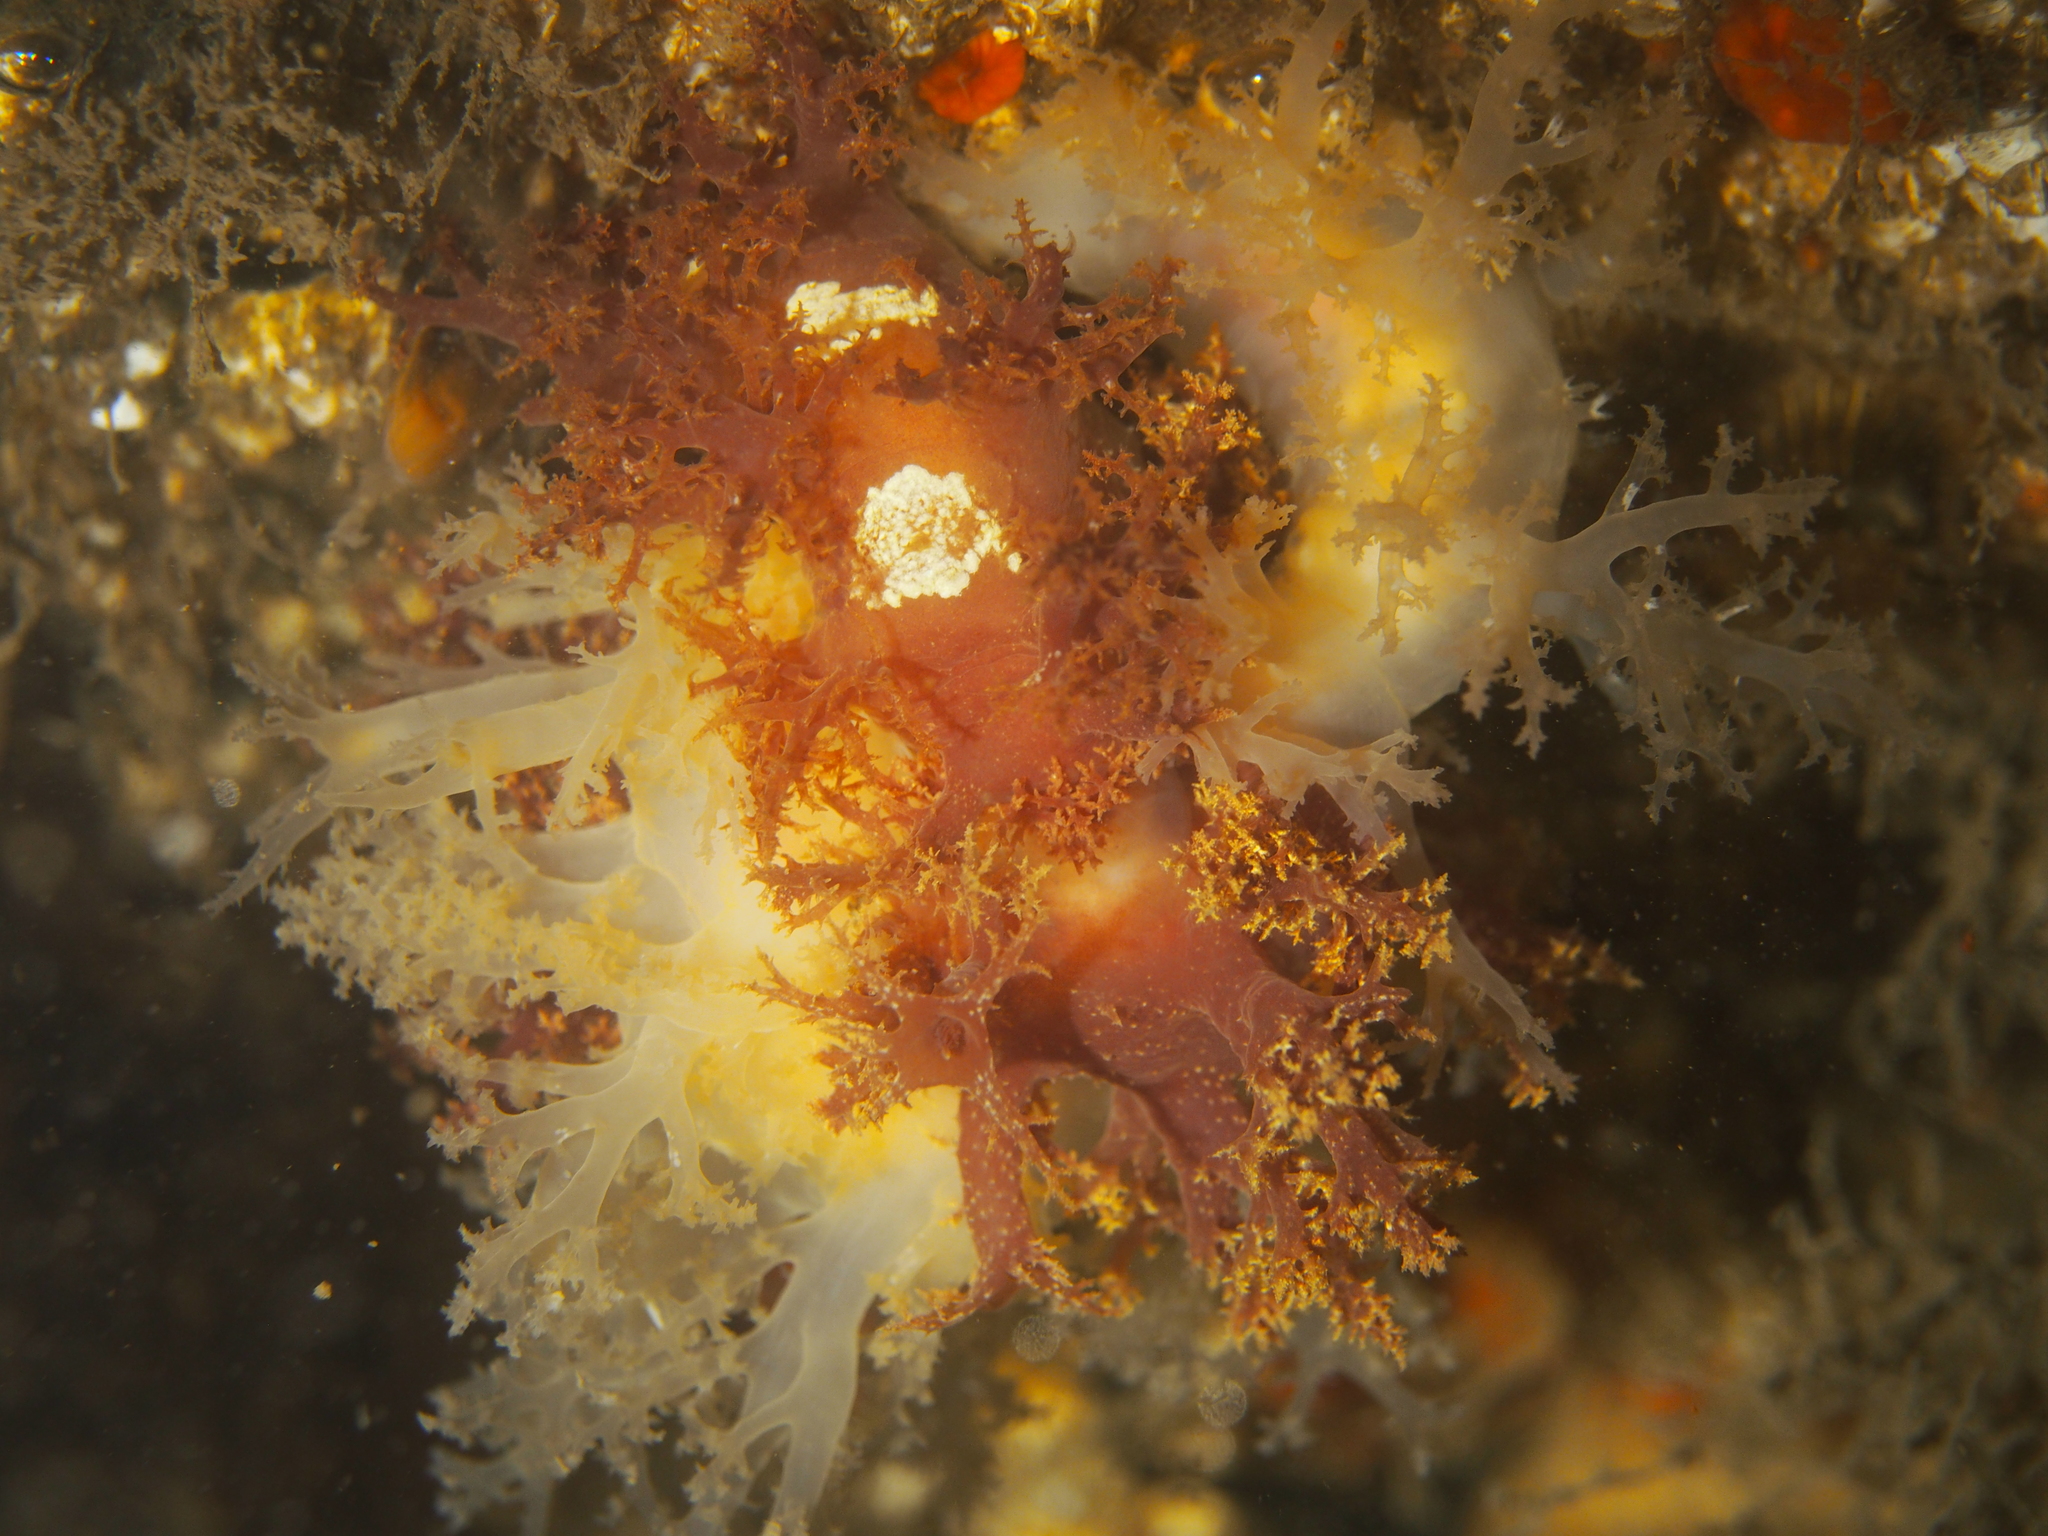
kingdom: Animalia
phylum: Mollusca
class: Gastropoda
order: Nudibranchia
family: Dendronotidae
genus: Dendronotus
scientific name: Dendronotus lacteus
